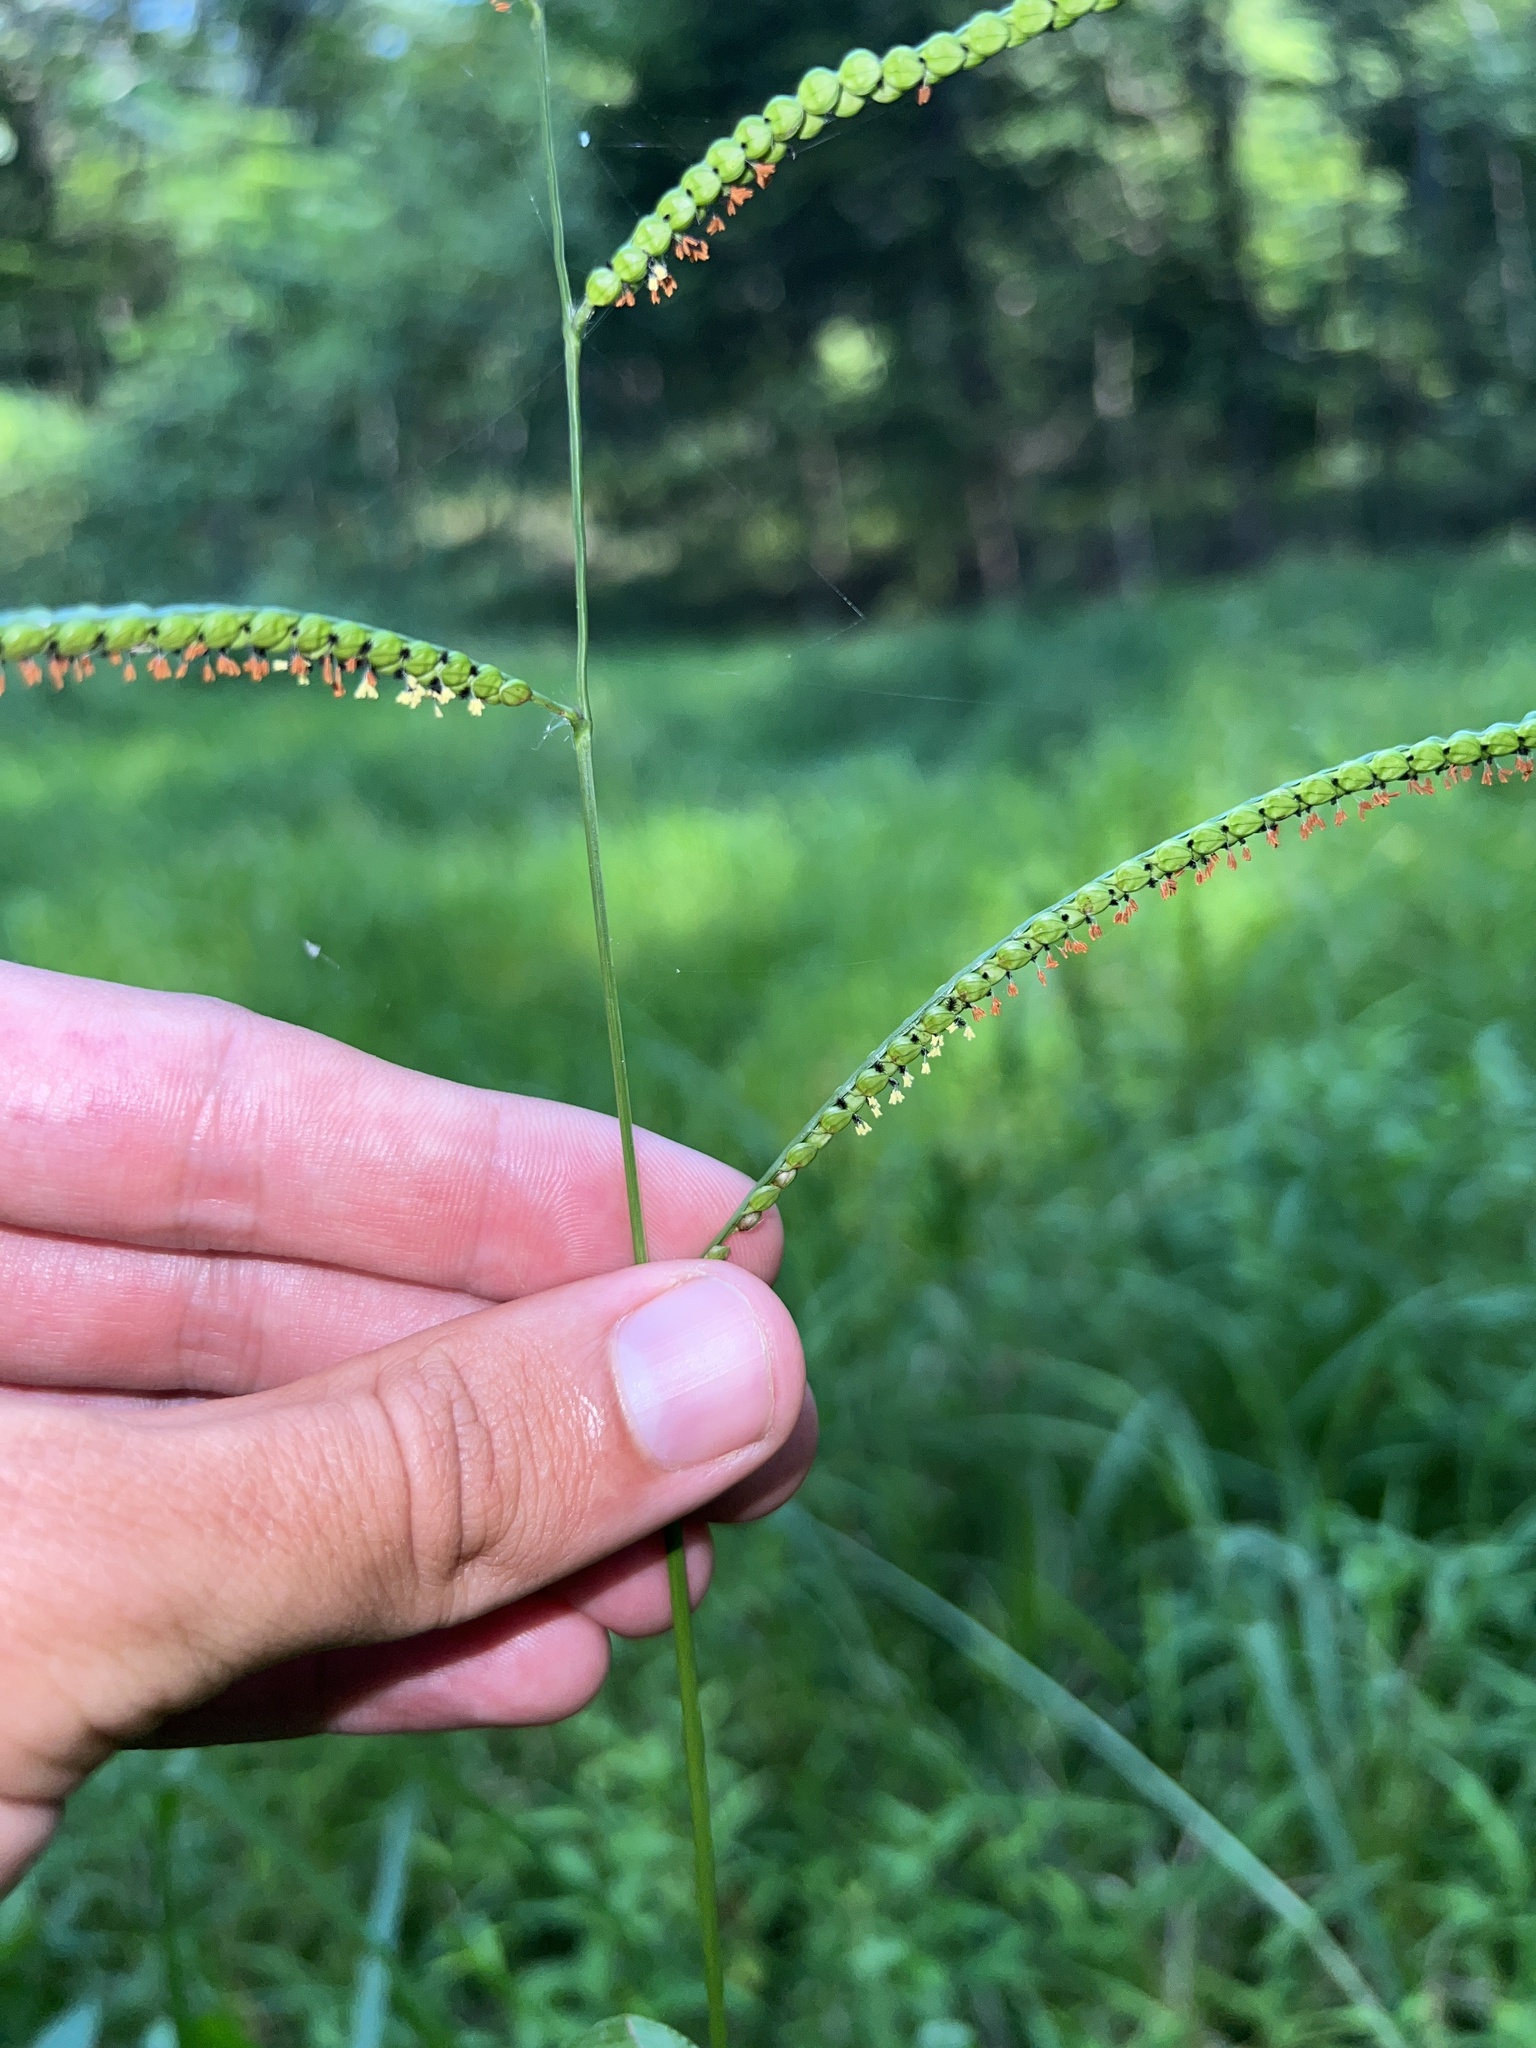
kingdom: Plantae
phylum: Tracheophyta
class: Liliopsida
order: Poales
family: Poaceae
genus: Paspalum
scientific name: Paspalum laeve
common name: Field paspalum
